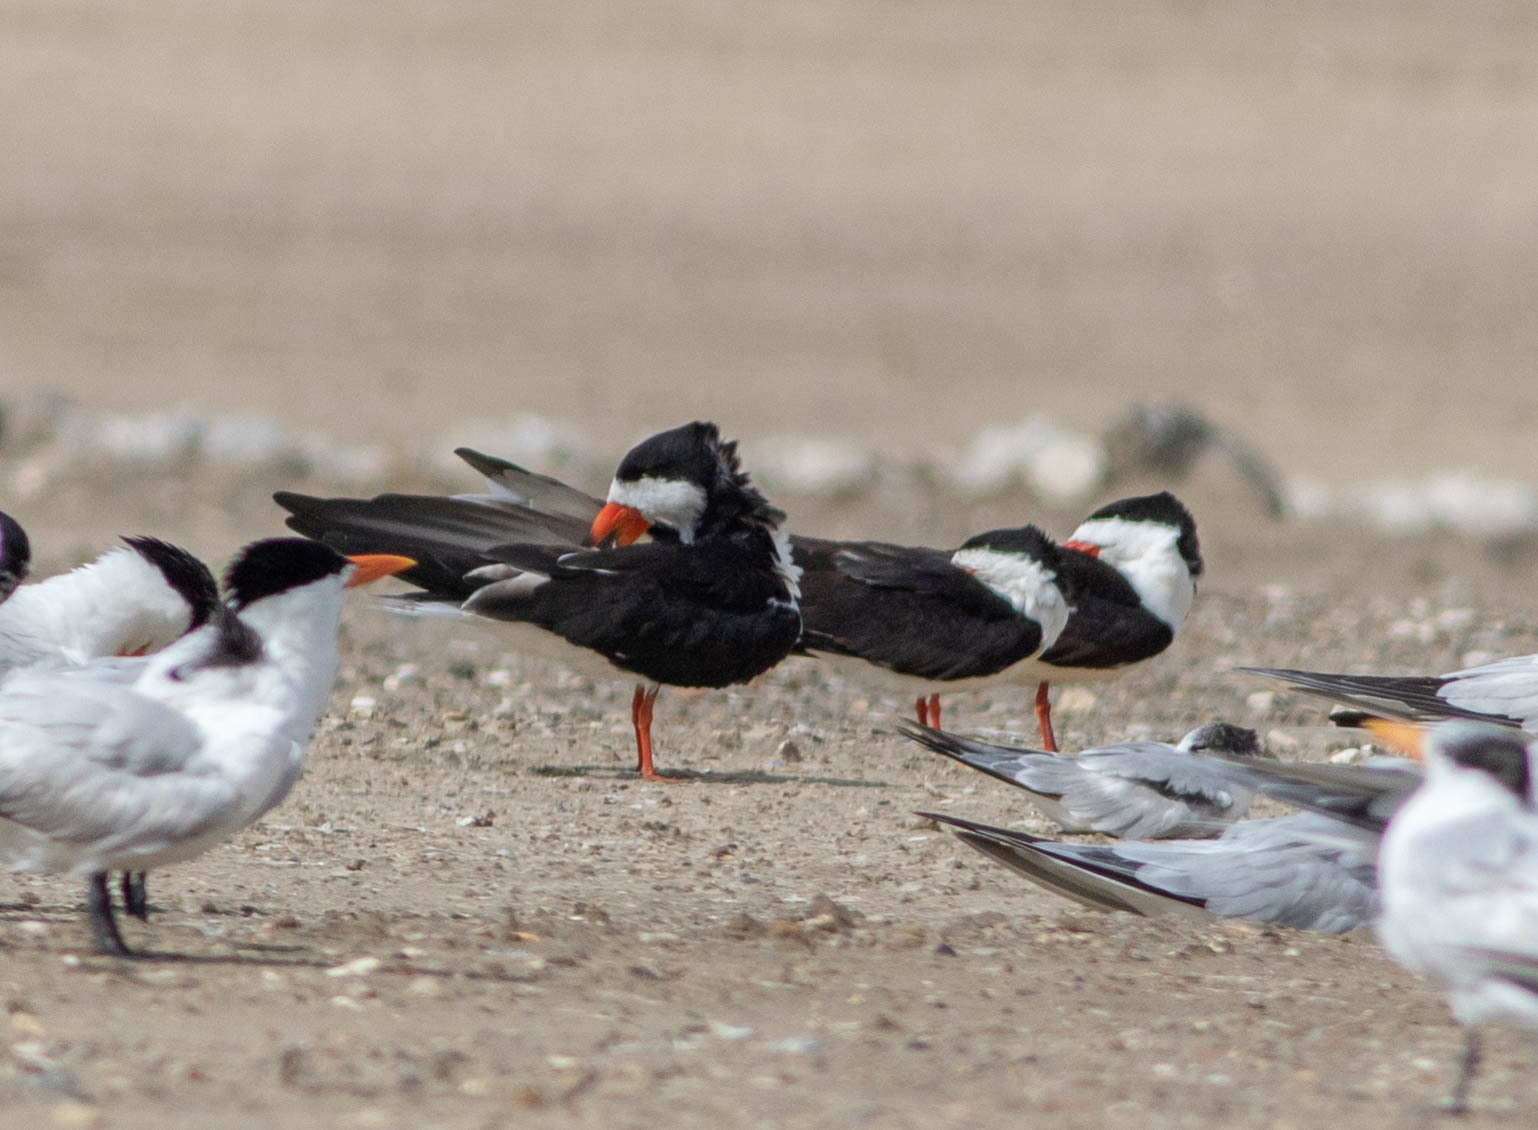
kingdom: Animalia
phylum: Chordata
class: Aves
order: Charadriiformes
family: Laridae
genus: Rynchops
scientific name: Rynchops niger
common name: Black skimmer
